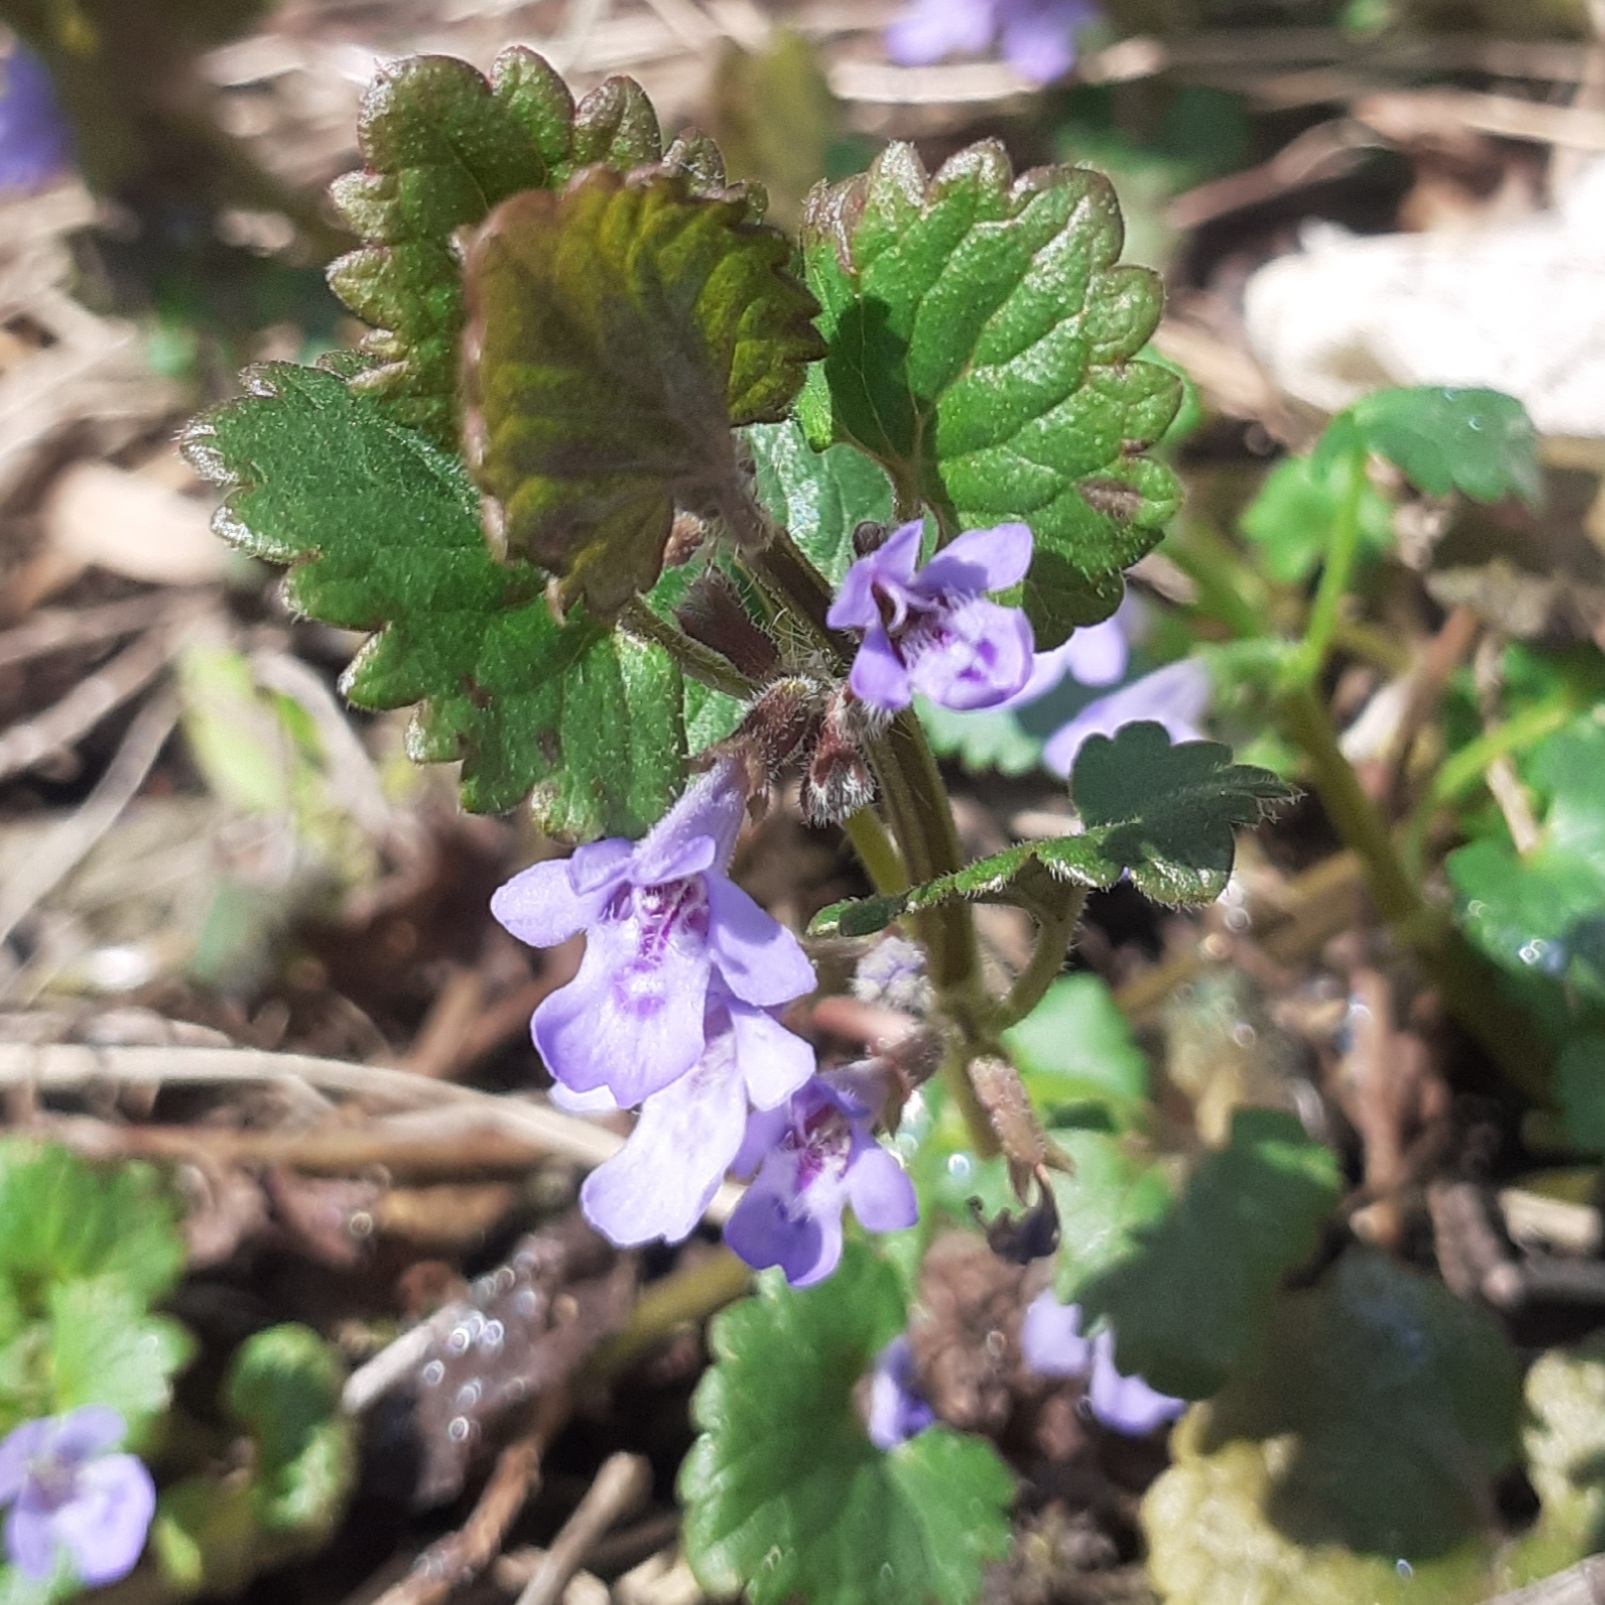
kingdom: Plantae
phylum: Tracheophyta
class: Magnoliopsida
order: Lamiales
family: Lamiaceae
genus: Glechoma
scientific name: Glechoma hederacea
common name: Ground ivy
